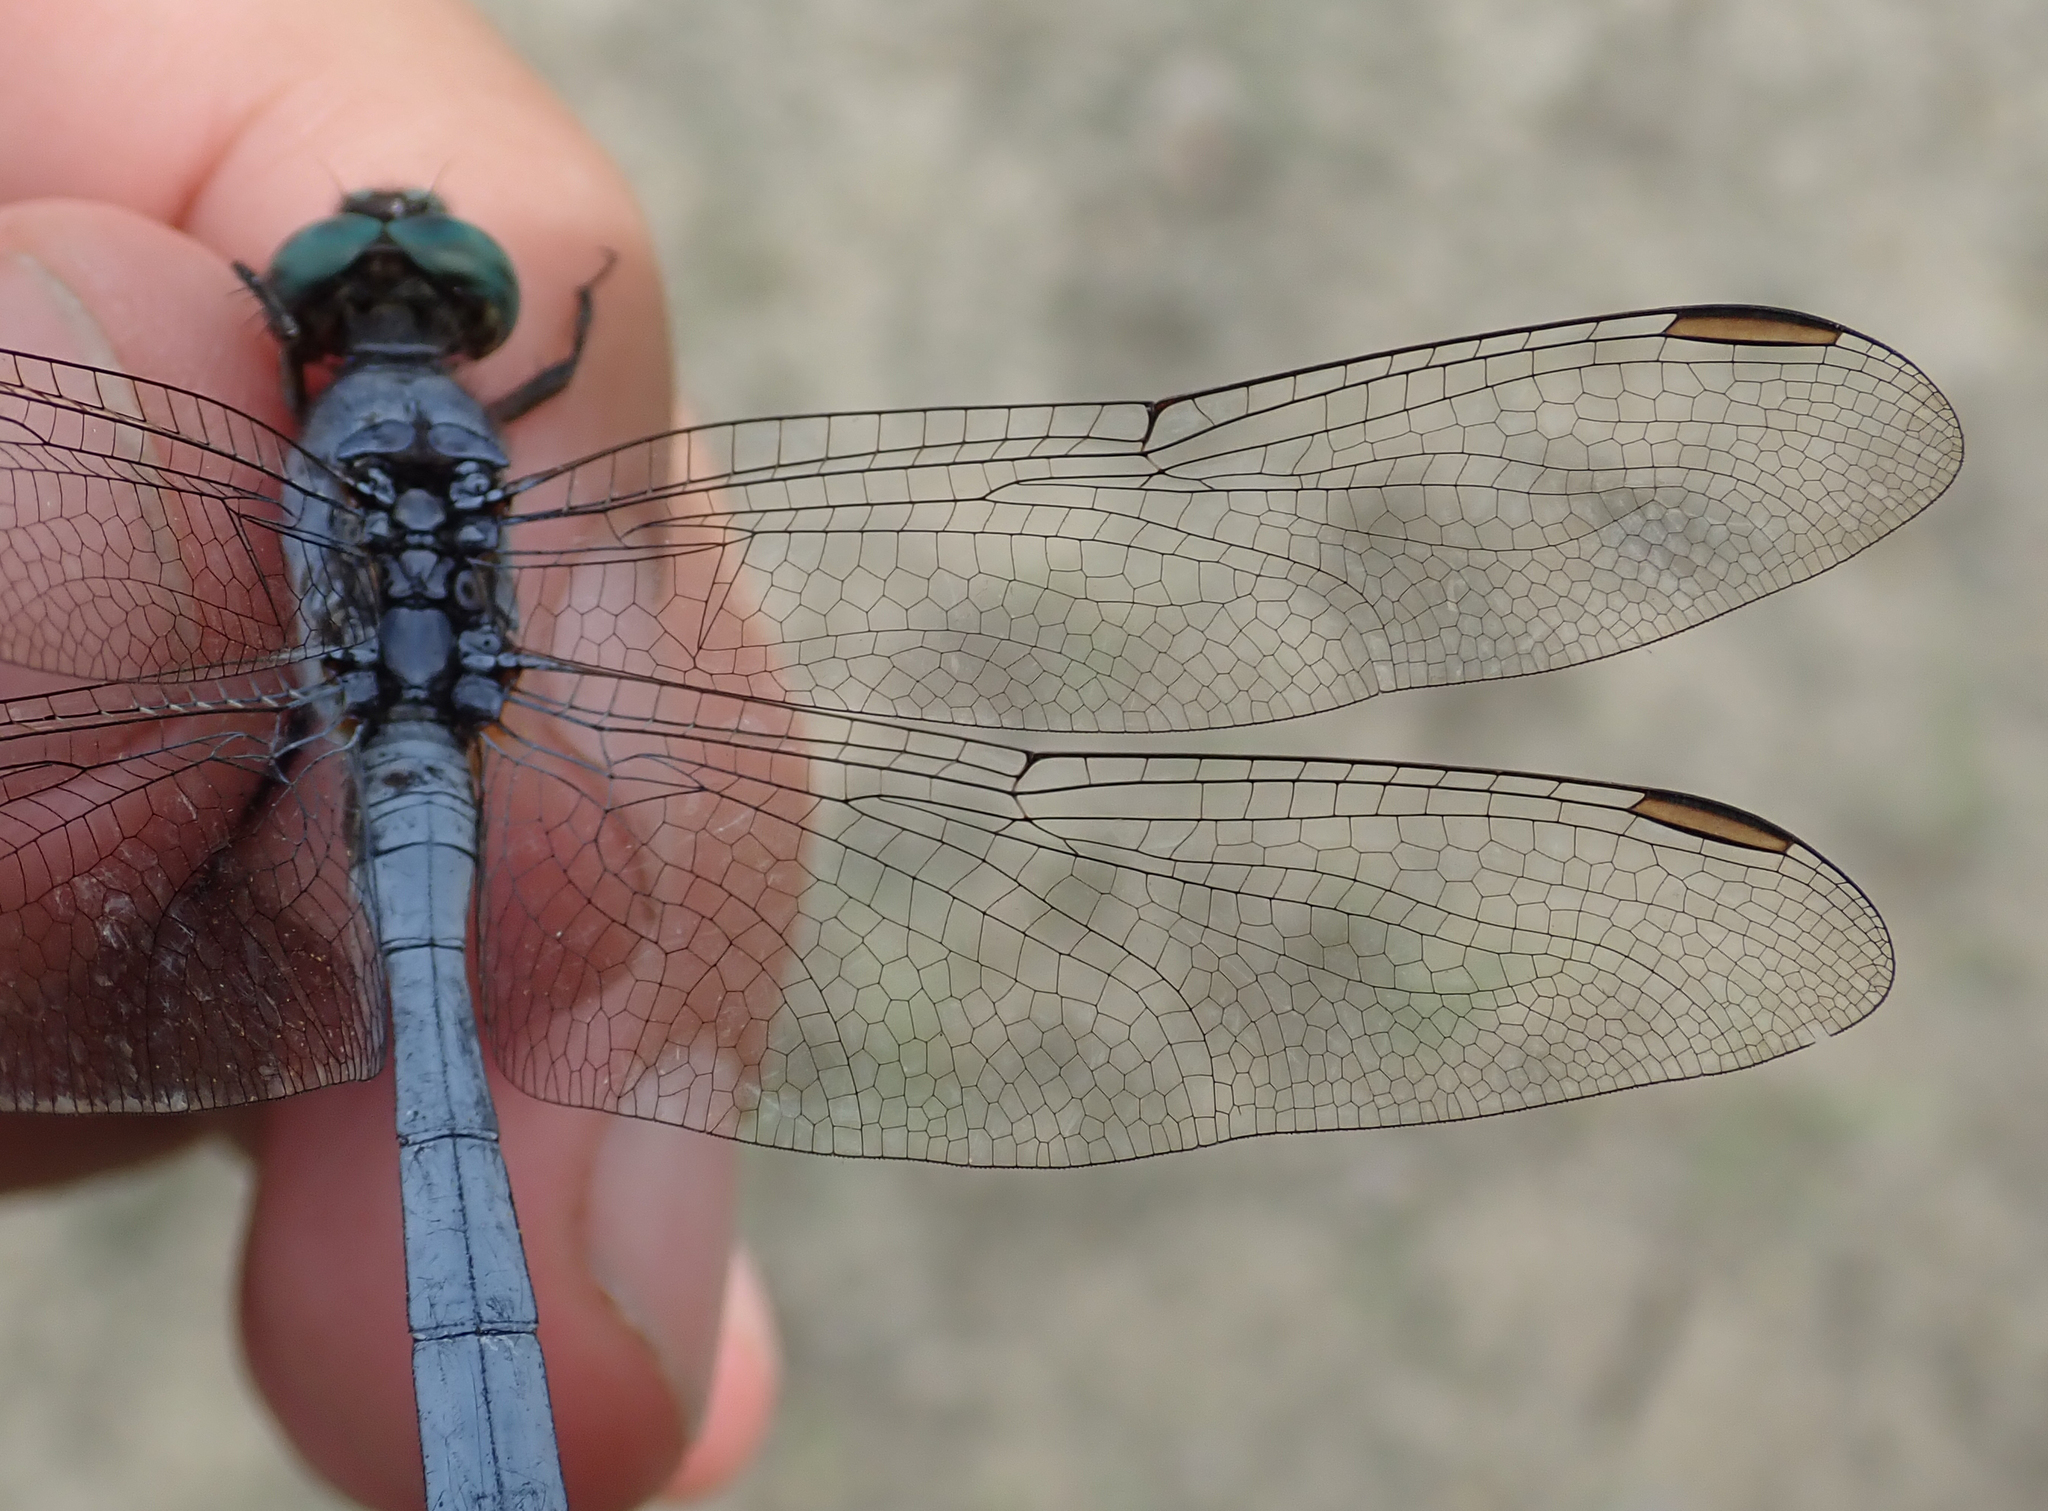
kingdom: Animalia
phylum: Arthropoda
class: Insecta
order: Odonata
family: Libellulidae
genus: Orthetrum
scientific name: Orthetrum brachiale
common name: Banded skimmer
